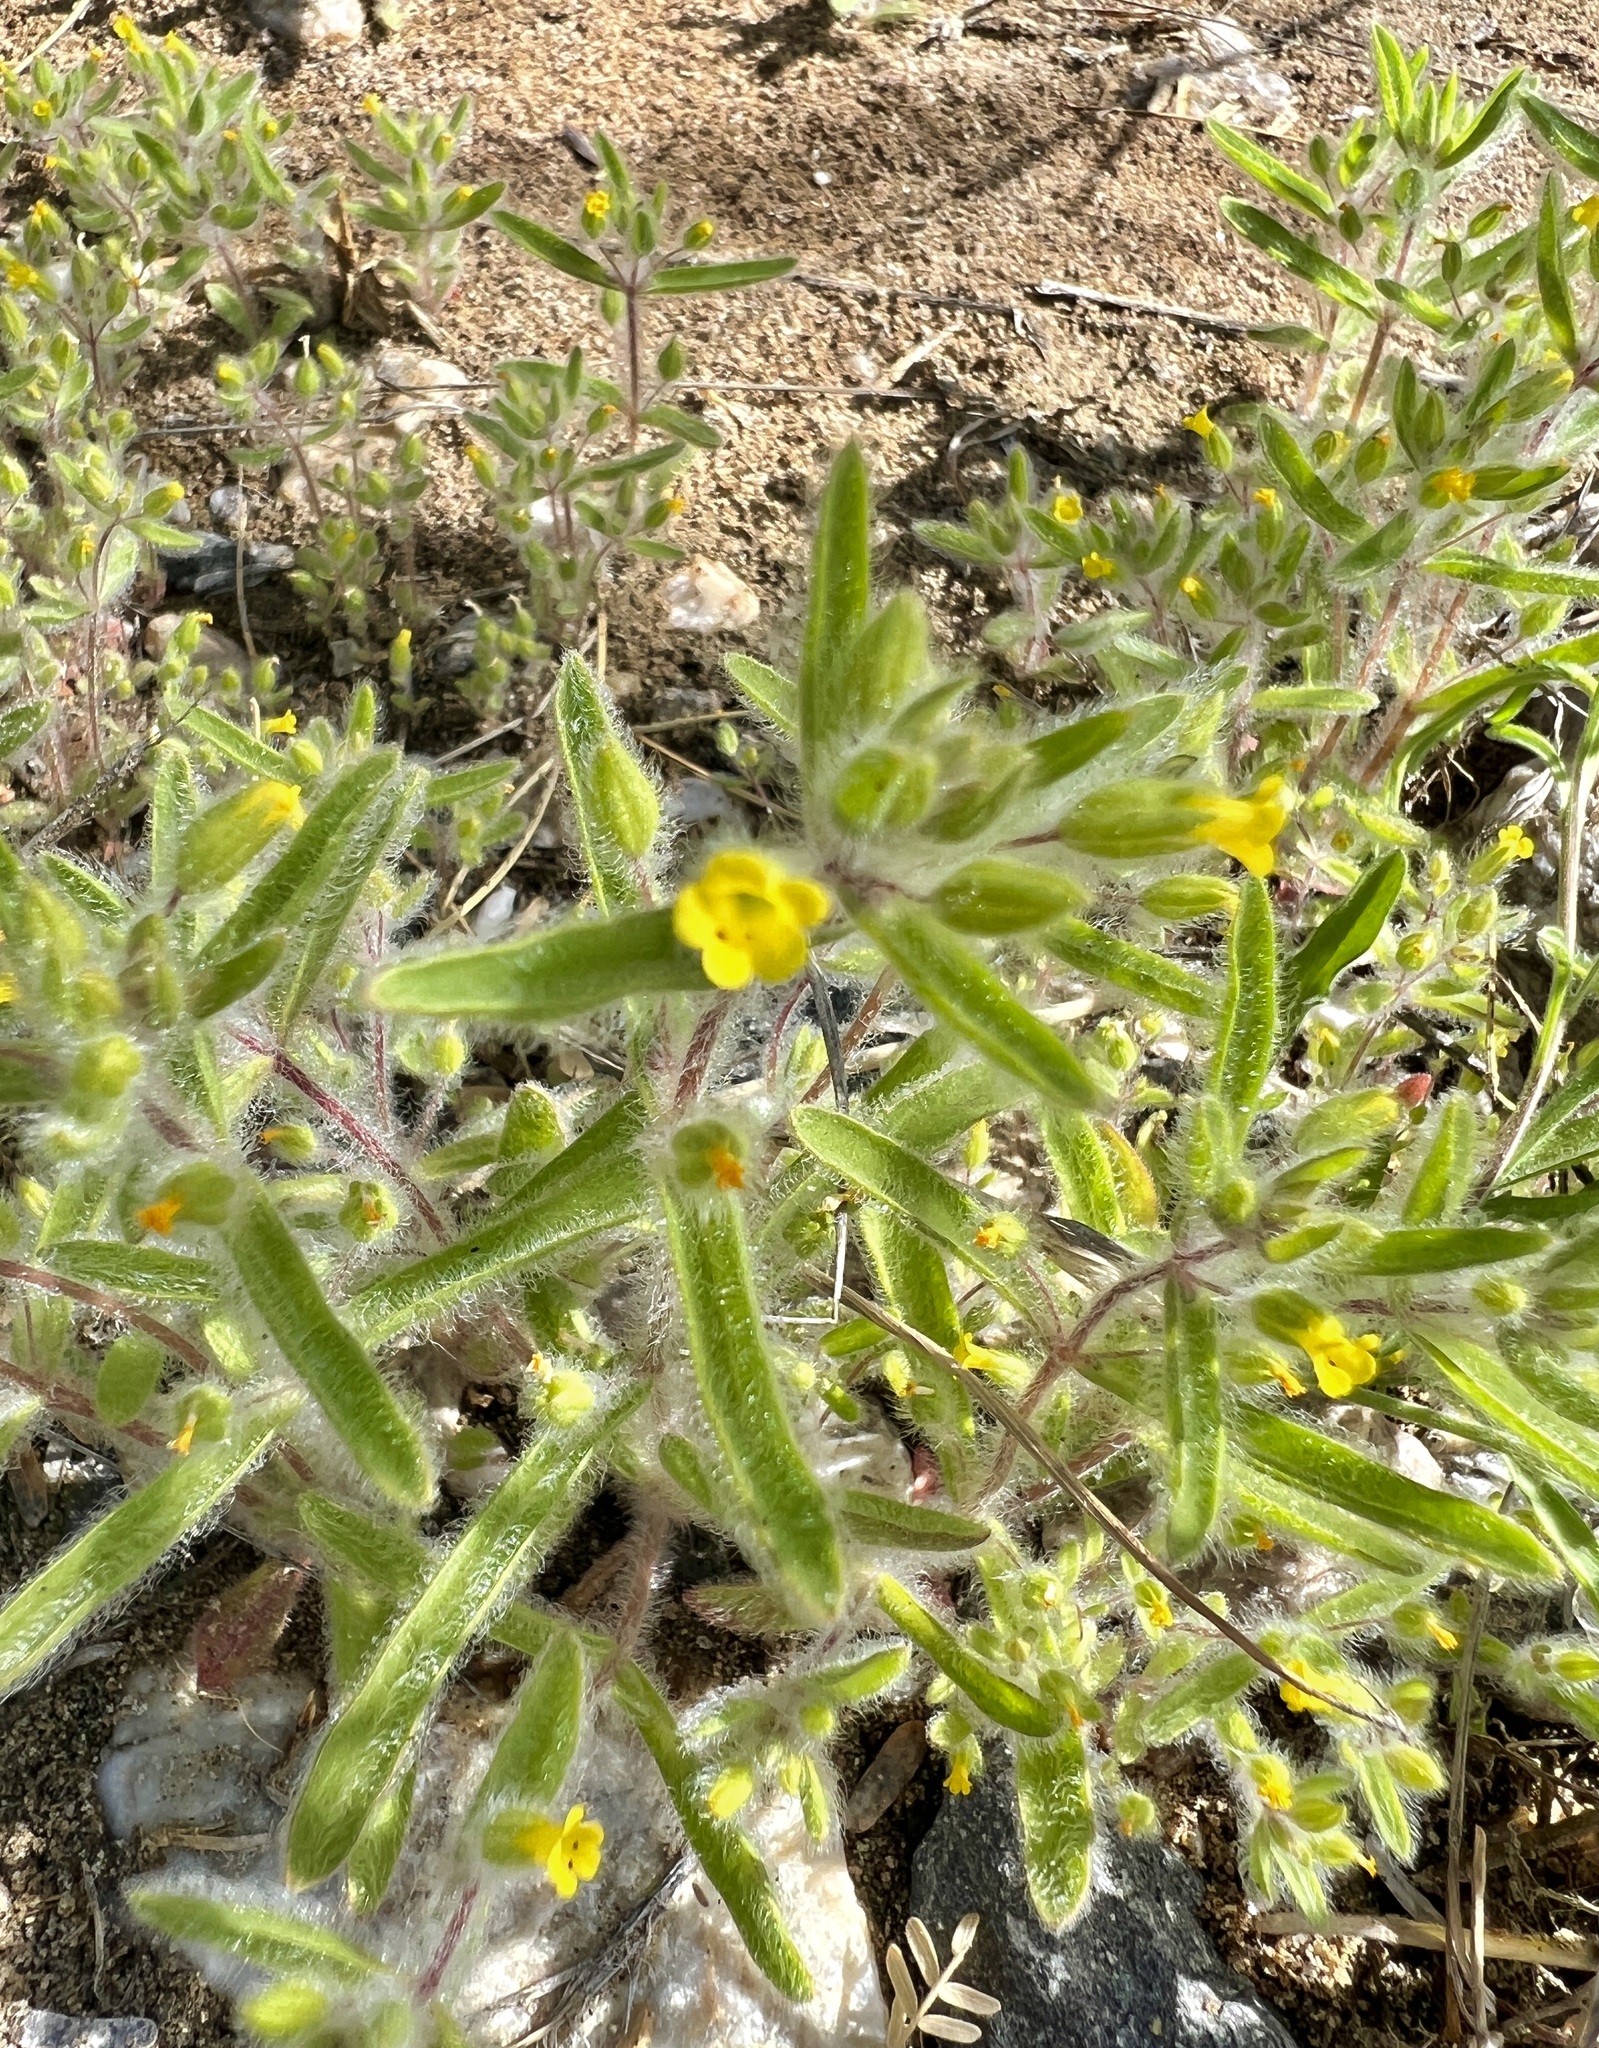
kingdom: Plantae
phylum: Tracheophyta
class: Magnoliopsida
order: Lamiales
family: Phrymaceae
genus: Mimetanthe
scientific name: Mimetanthe pilosa
